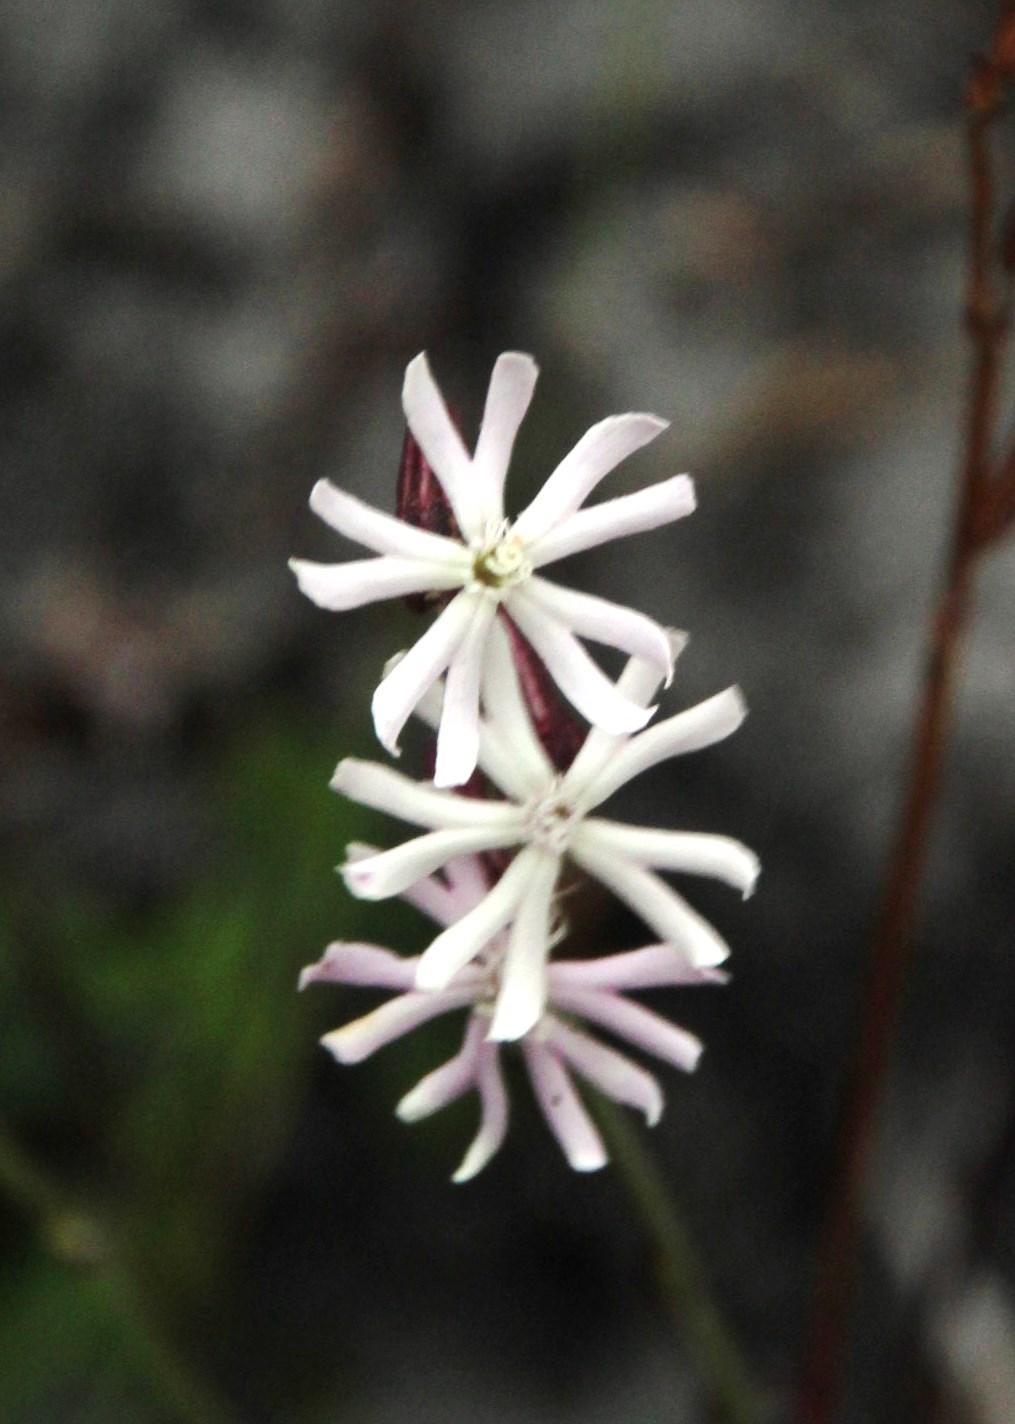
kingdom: Plantae
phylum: Tracheophyta
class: Magnoliopsida
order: Caryophyllales
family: Caryophyllaceae
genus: Silene
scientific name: Silene burchellii
